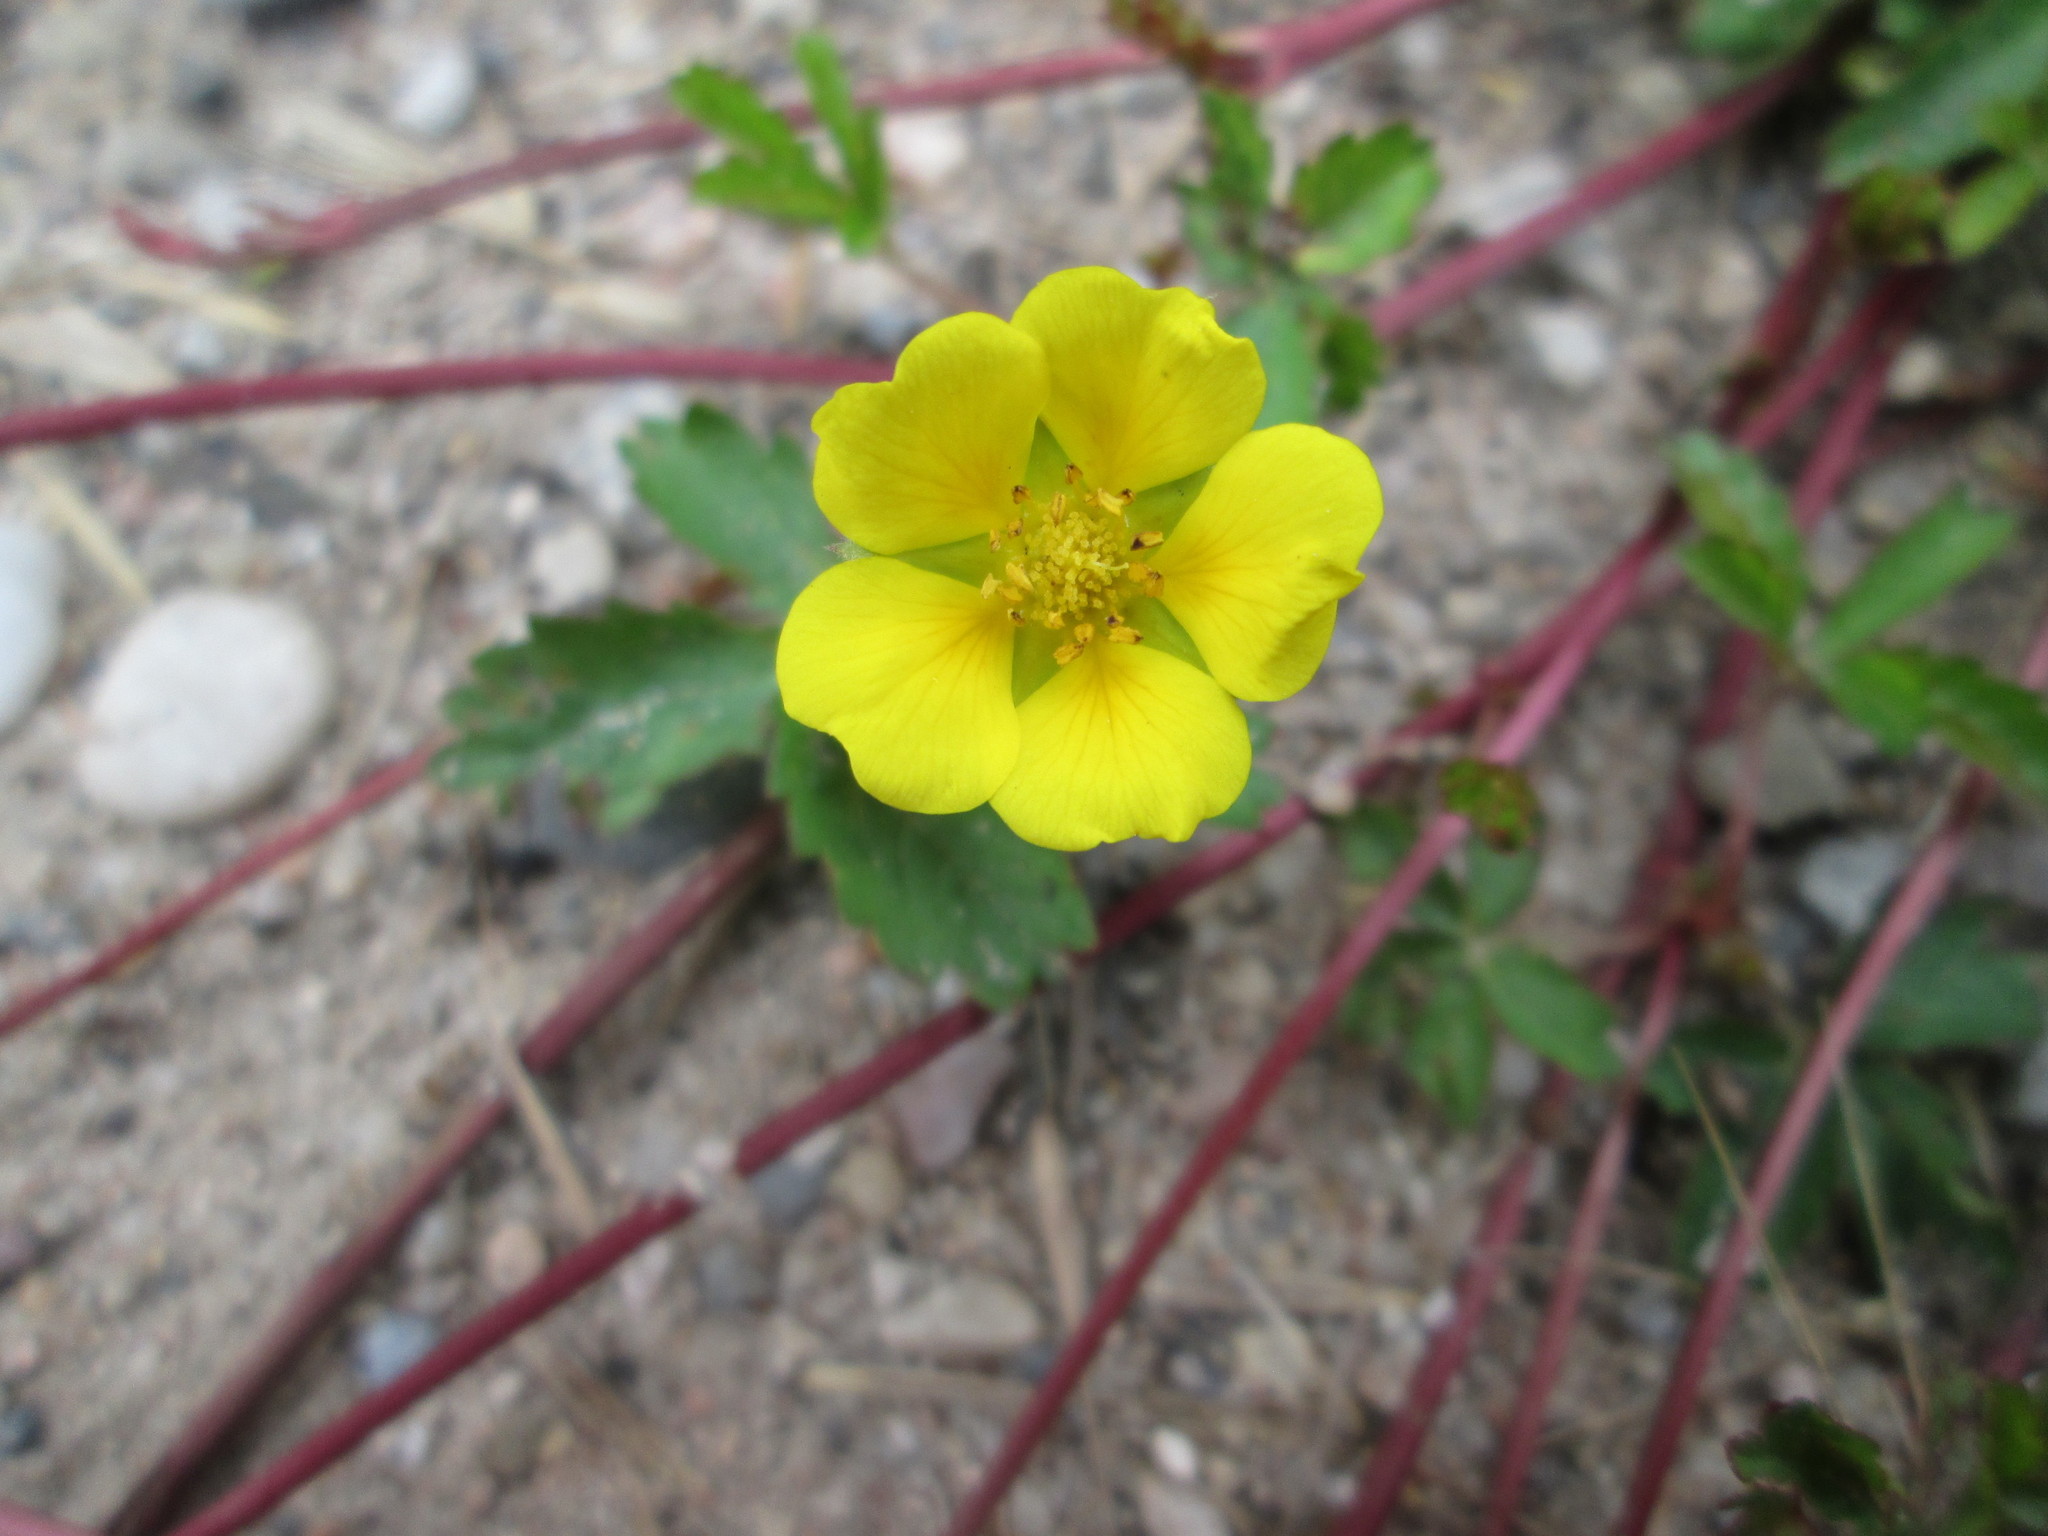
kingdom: Plantae
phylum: Tracheophyta
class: Magnoliopsida
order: Rosales
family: Rosaceae
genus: Potentilla
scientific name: Potentilla reptans
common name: Creeping cinquefoil
